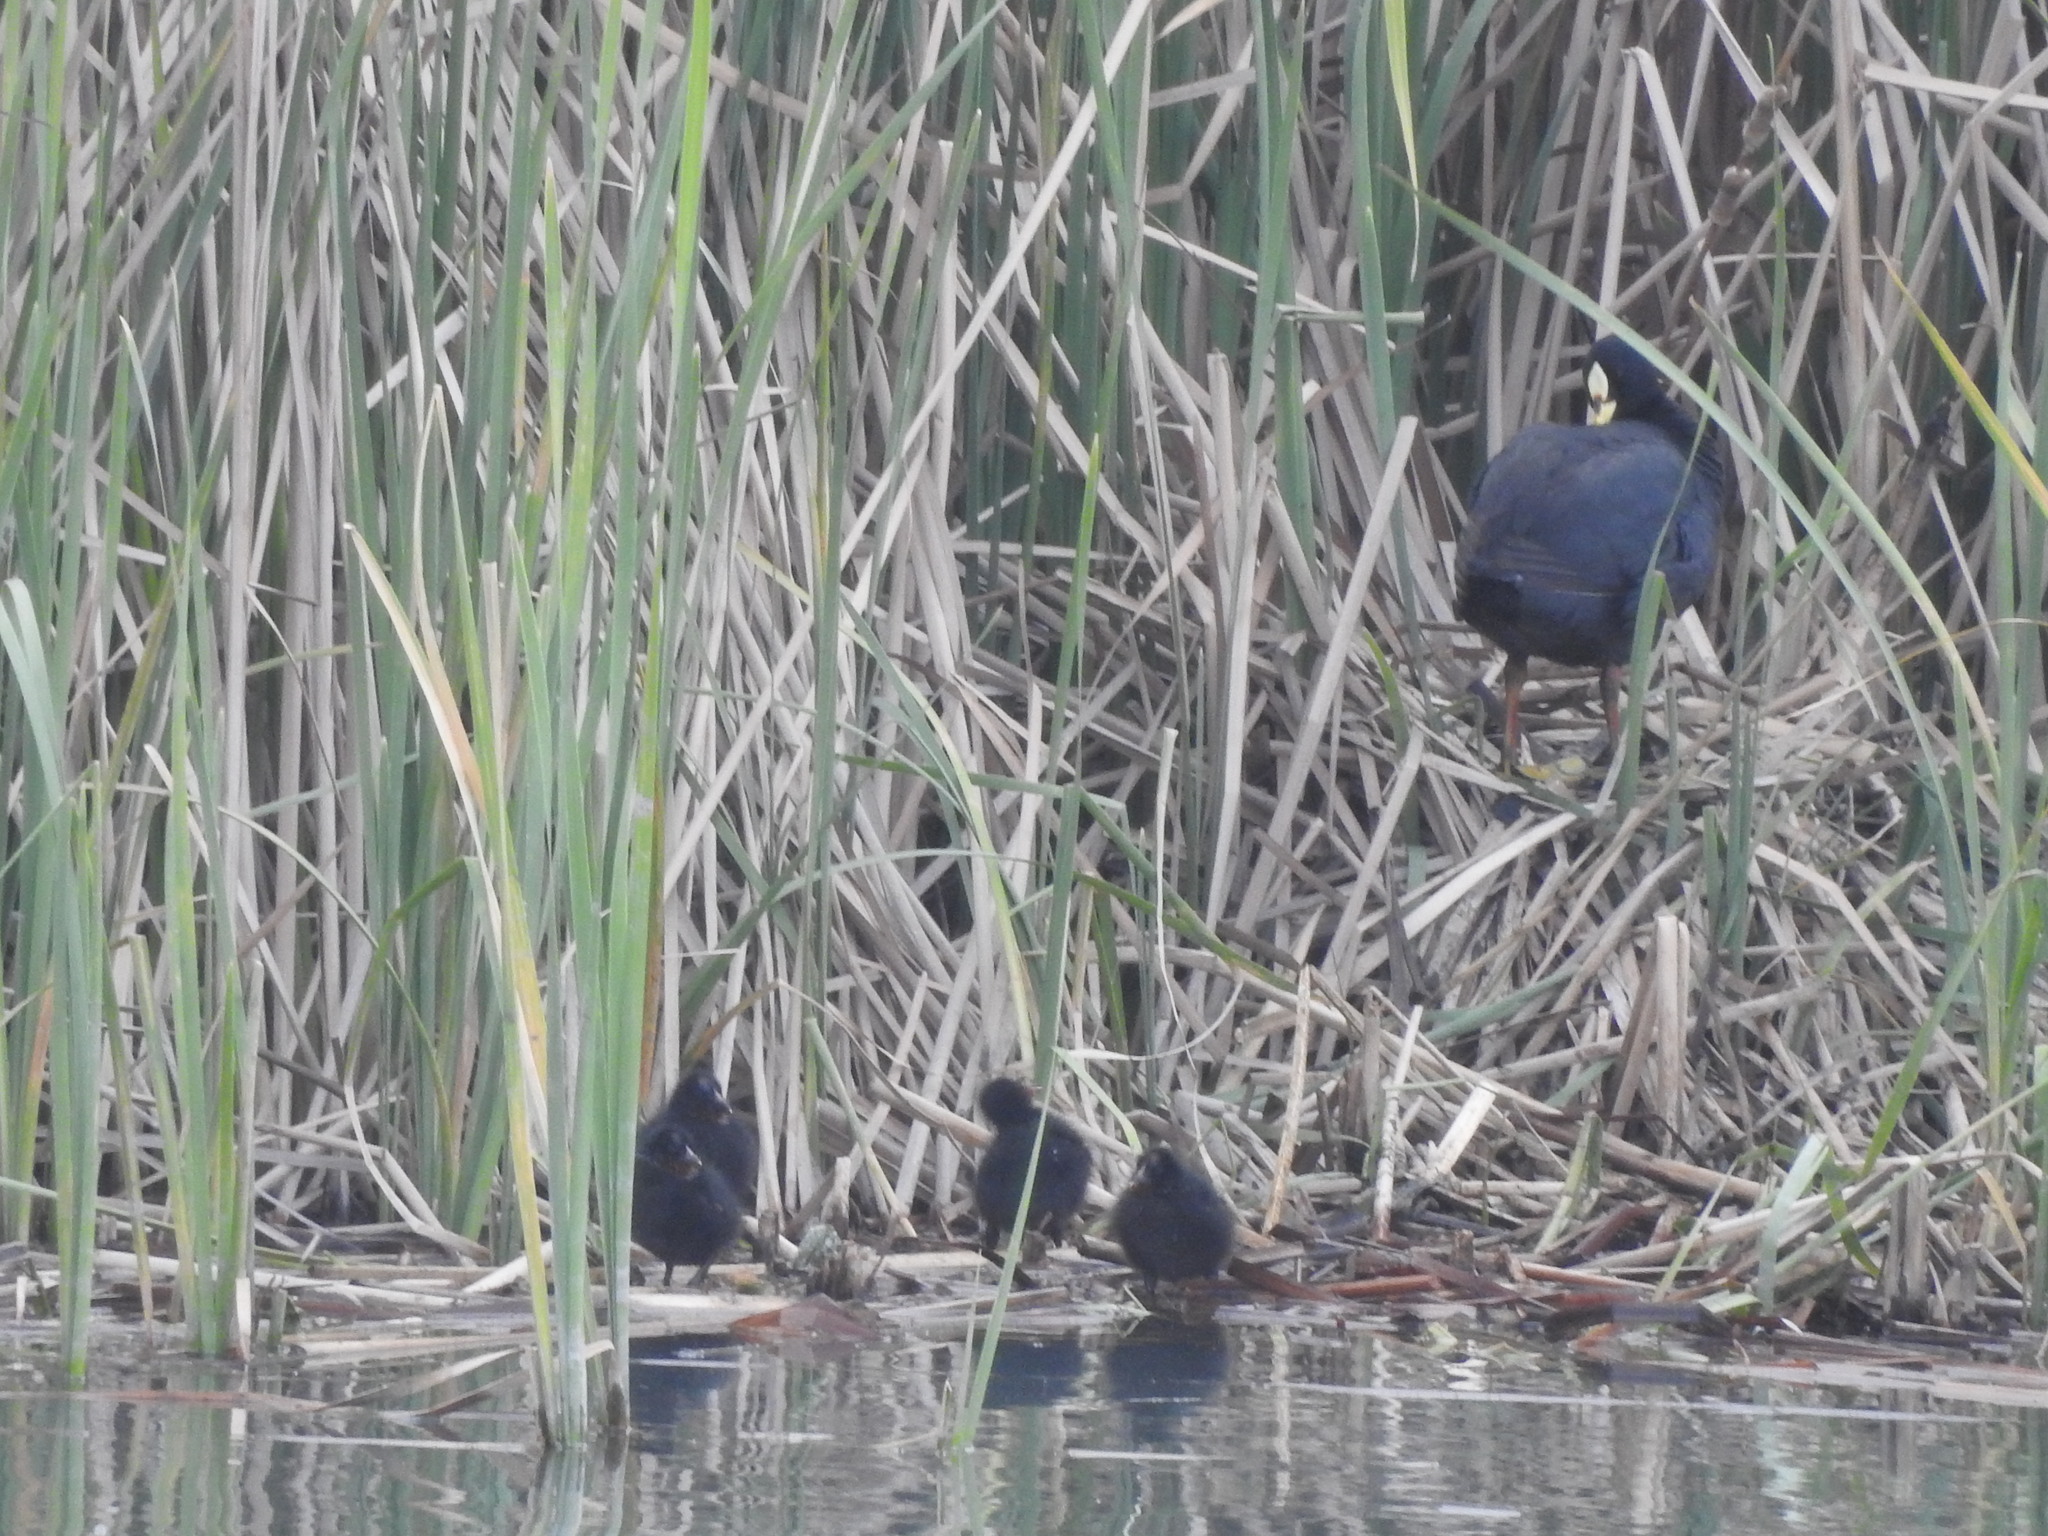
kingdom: Animalia
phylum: Chordata
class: Aves
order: Gruiformes
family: Rallidae
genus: Fulica
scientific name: Fulica armillata
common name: Red-gartered coot
